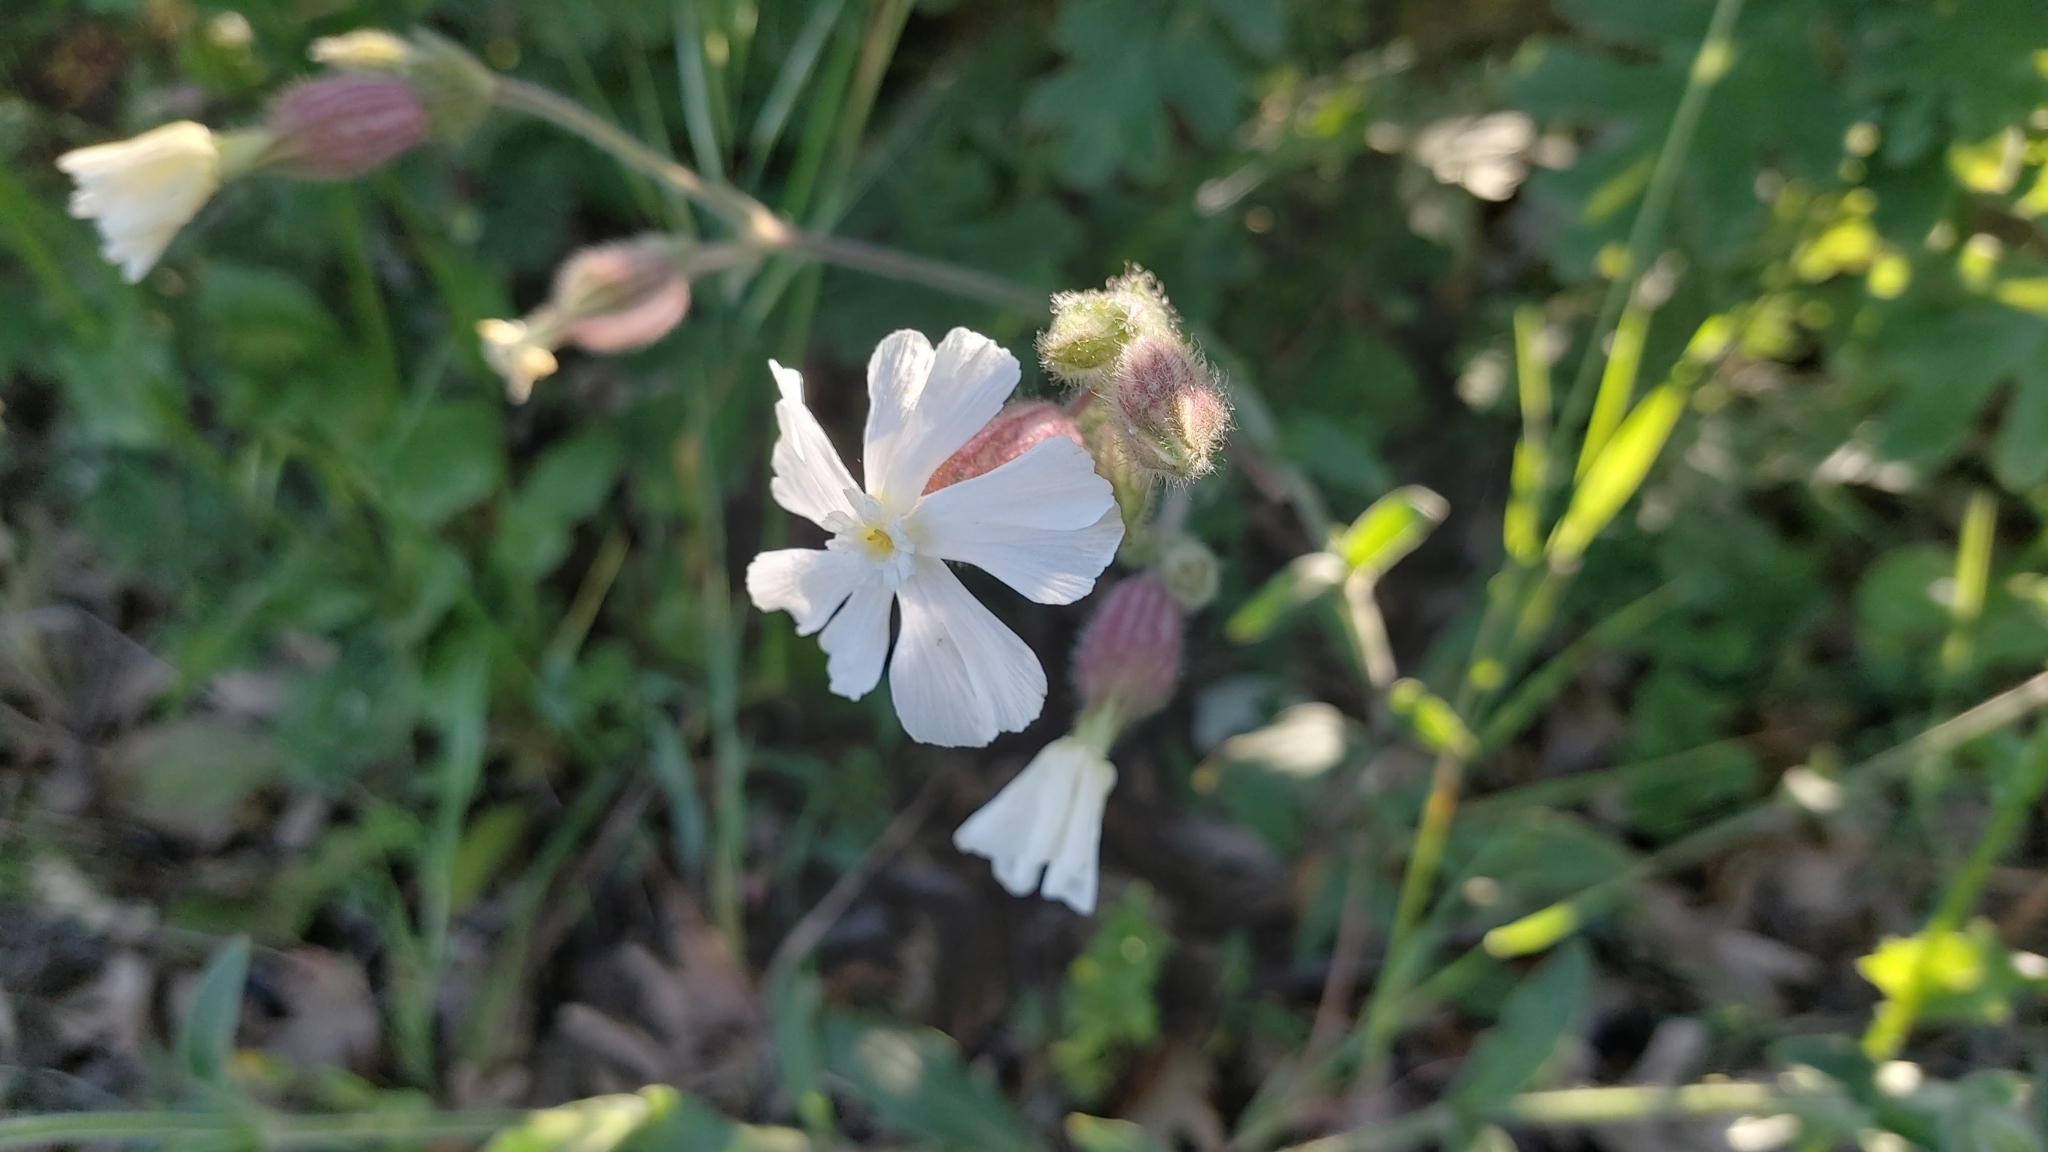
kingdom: Plantae
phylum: Tracheophyta
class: Magnoliopsida
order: Caryophyllales
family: Caryophyllaceae
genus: Silene
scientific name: Silene latifolia
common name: White campion
